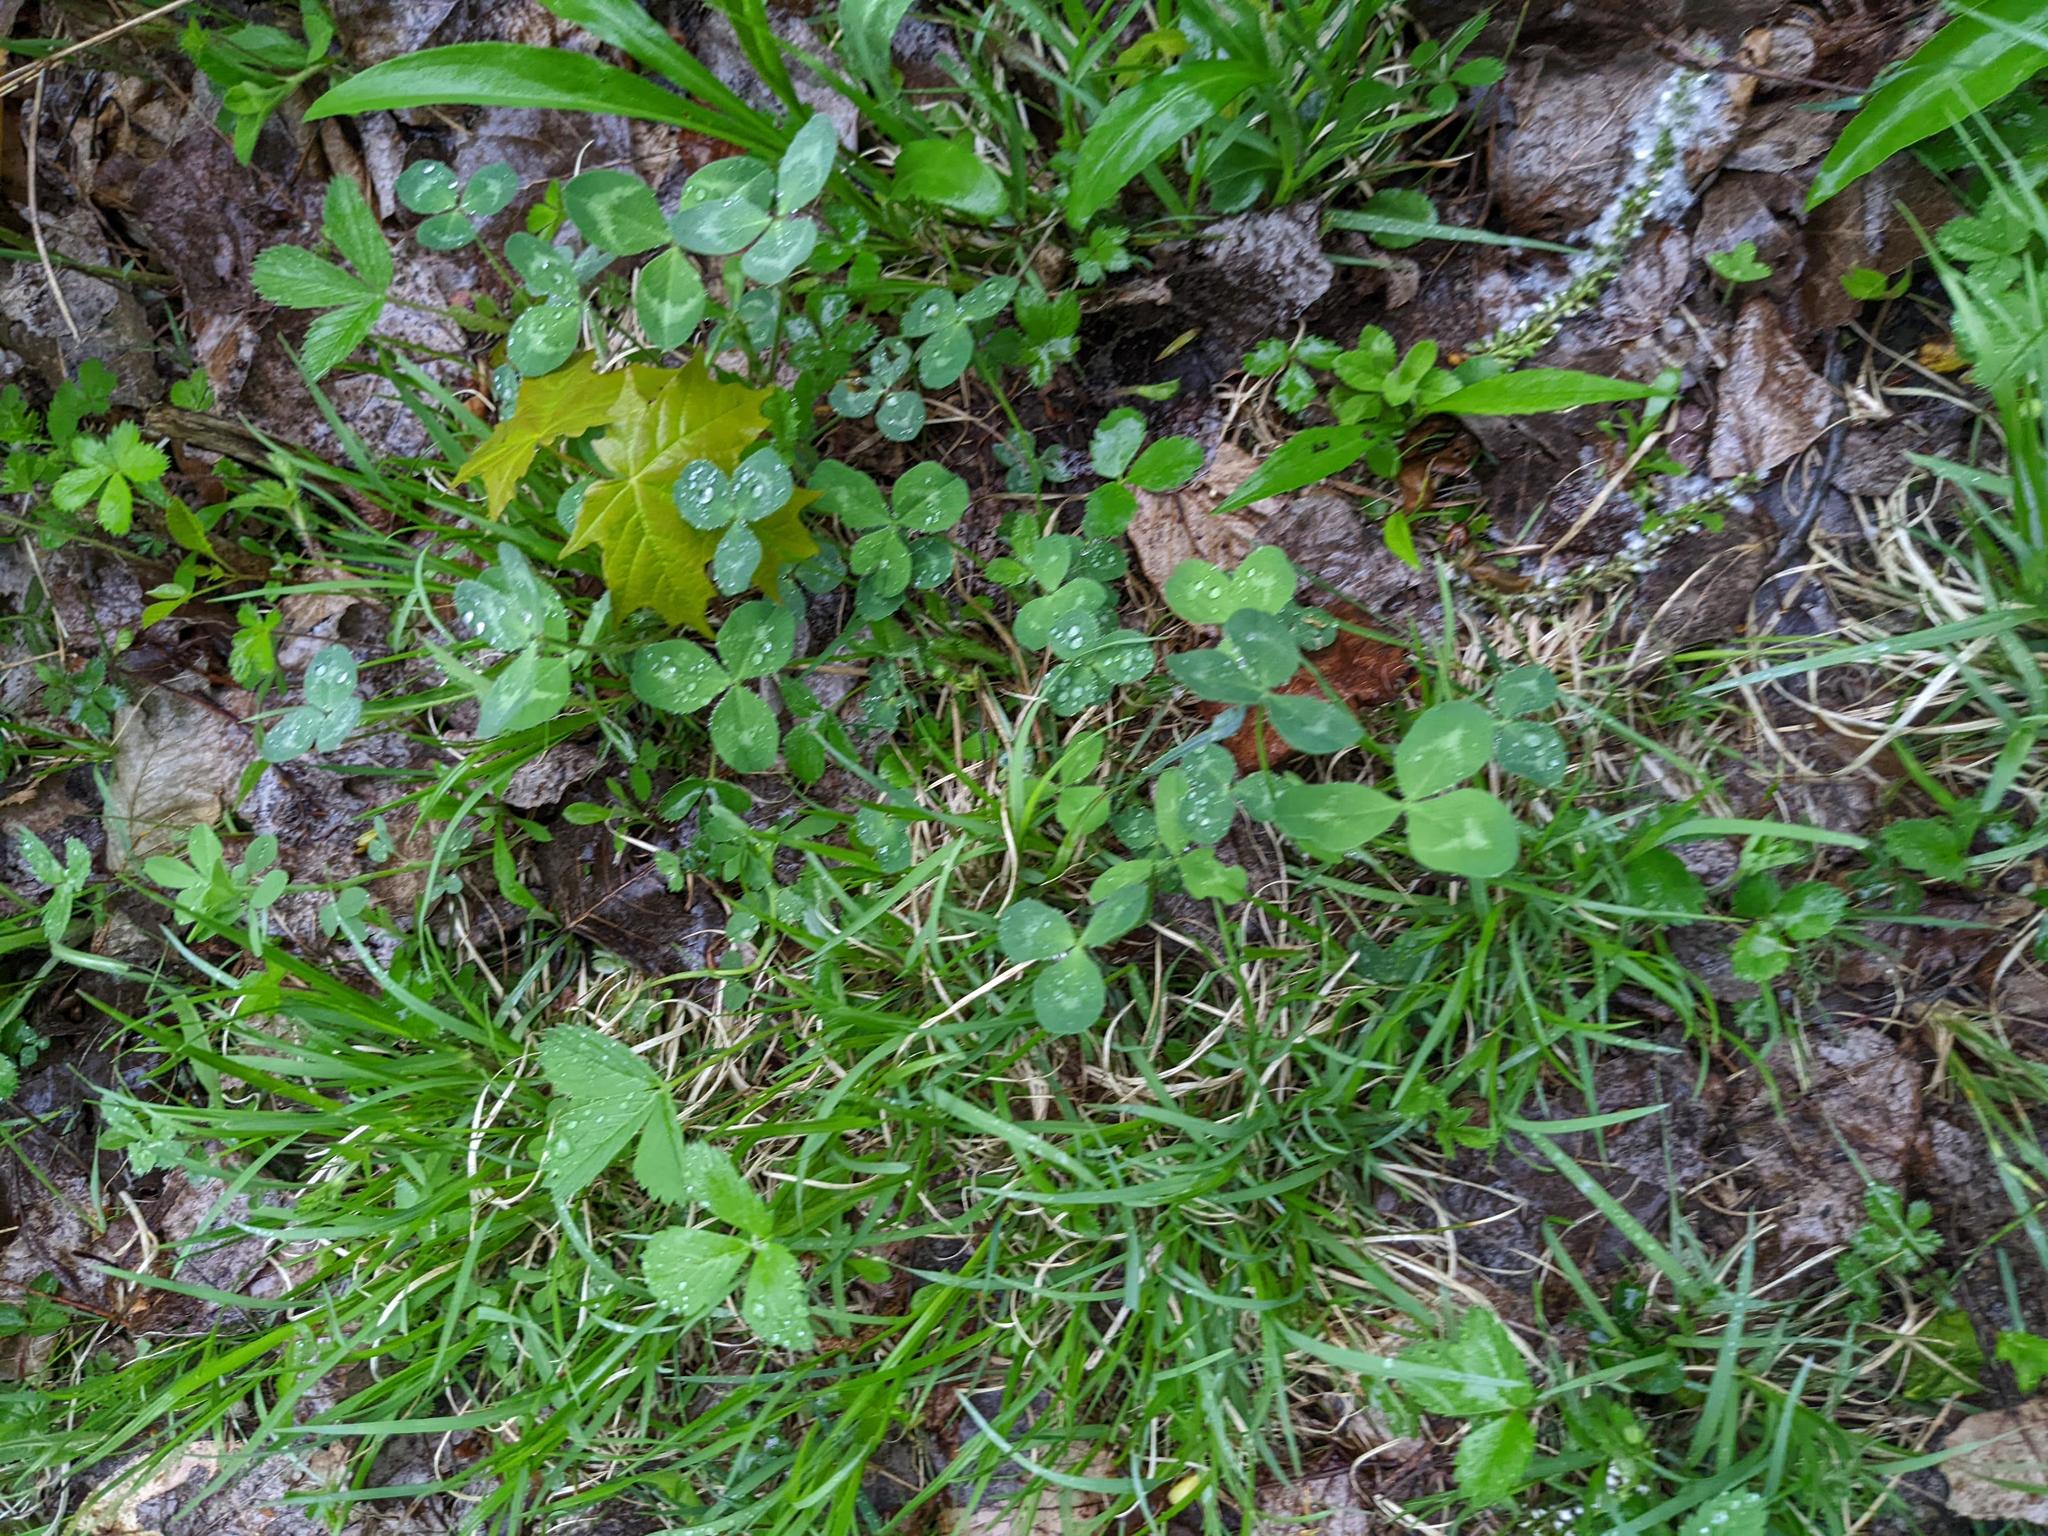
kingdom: Plantae
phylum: Tracheophyta
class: Magnoliopsida
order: Fabales
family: Fabaceae
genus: Trifolium
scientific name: Trifolium pratense
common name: Red clover
